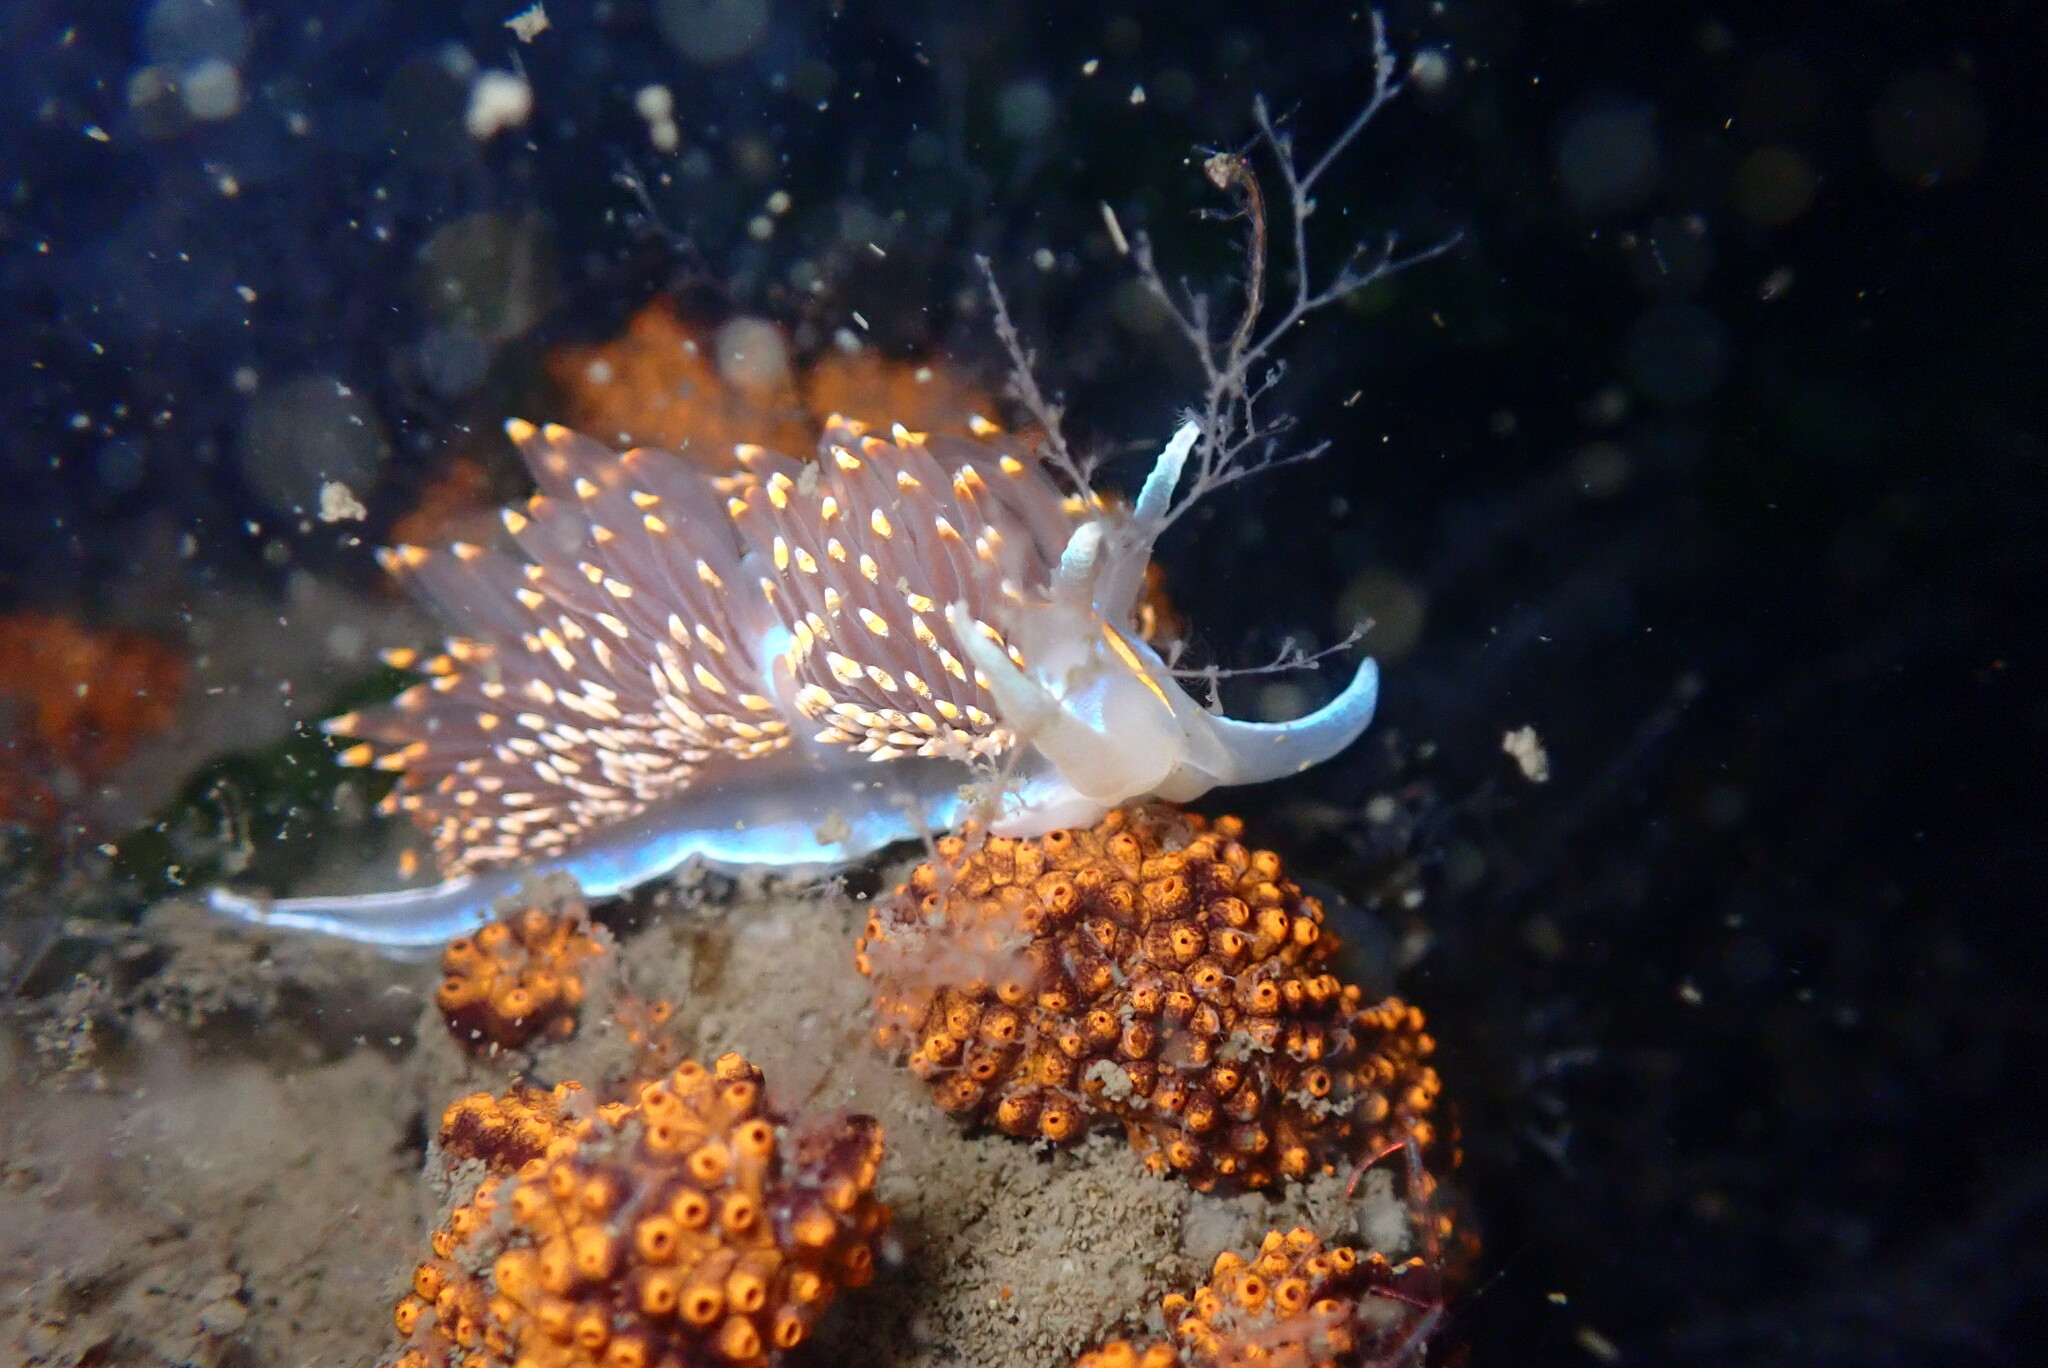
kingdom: Animalia
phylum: Mollusca
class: Gastropoda
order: Nudibranchia
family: Myrrhinidae
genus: Hermissenda
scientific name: Hermissenda opalescens
